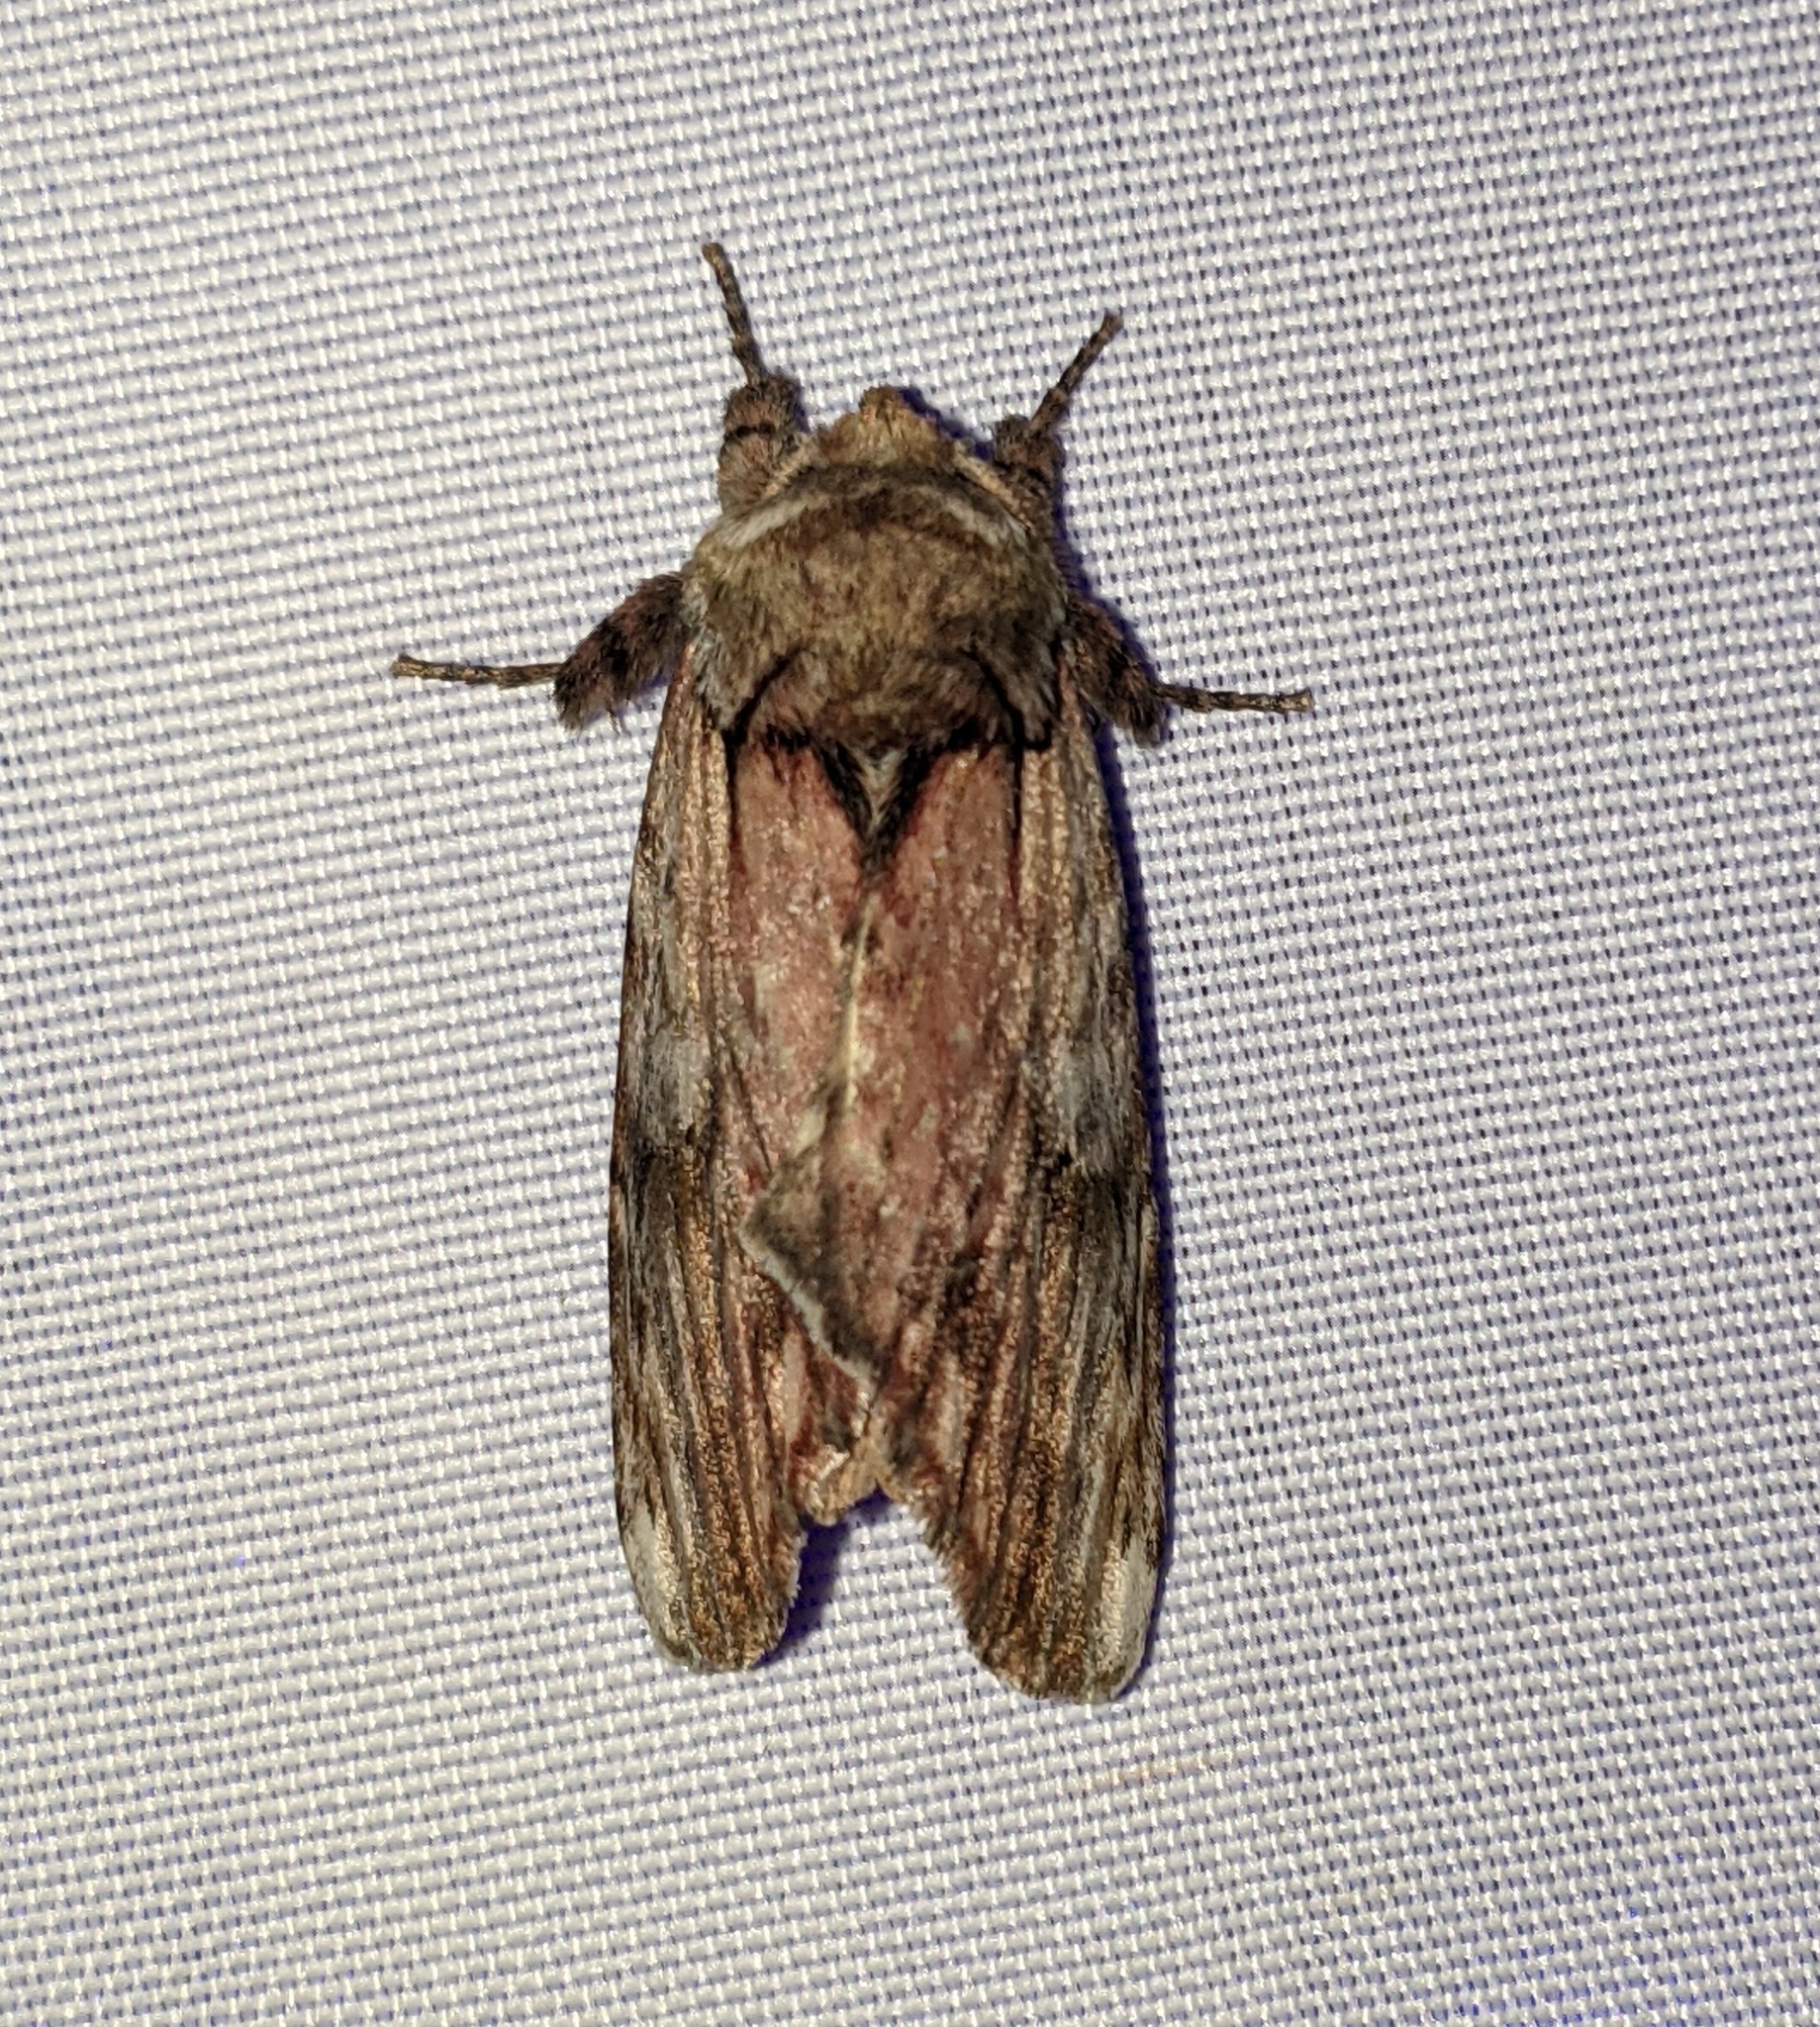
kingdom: Animalia
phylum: Arthropoda
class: Insecta
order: Lepidoptera
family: Notodontidae
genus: Schizura
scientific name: Schizura ipomaeae
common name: Morning-glory prominent
